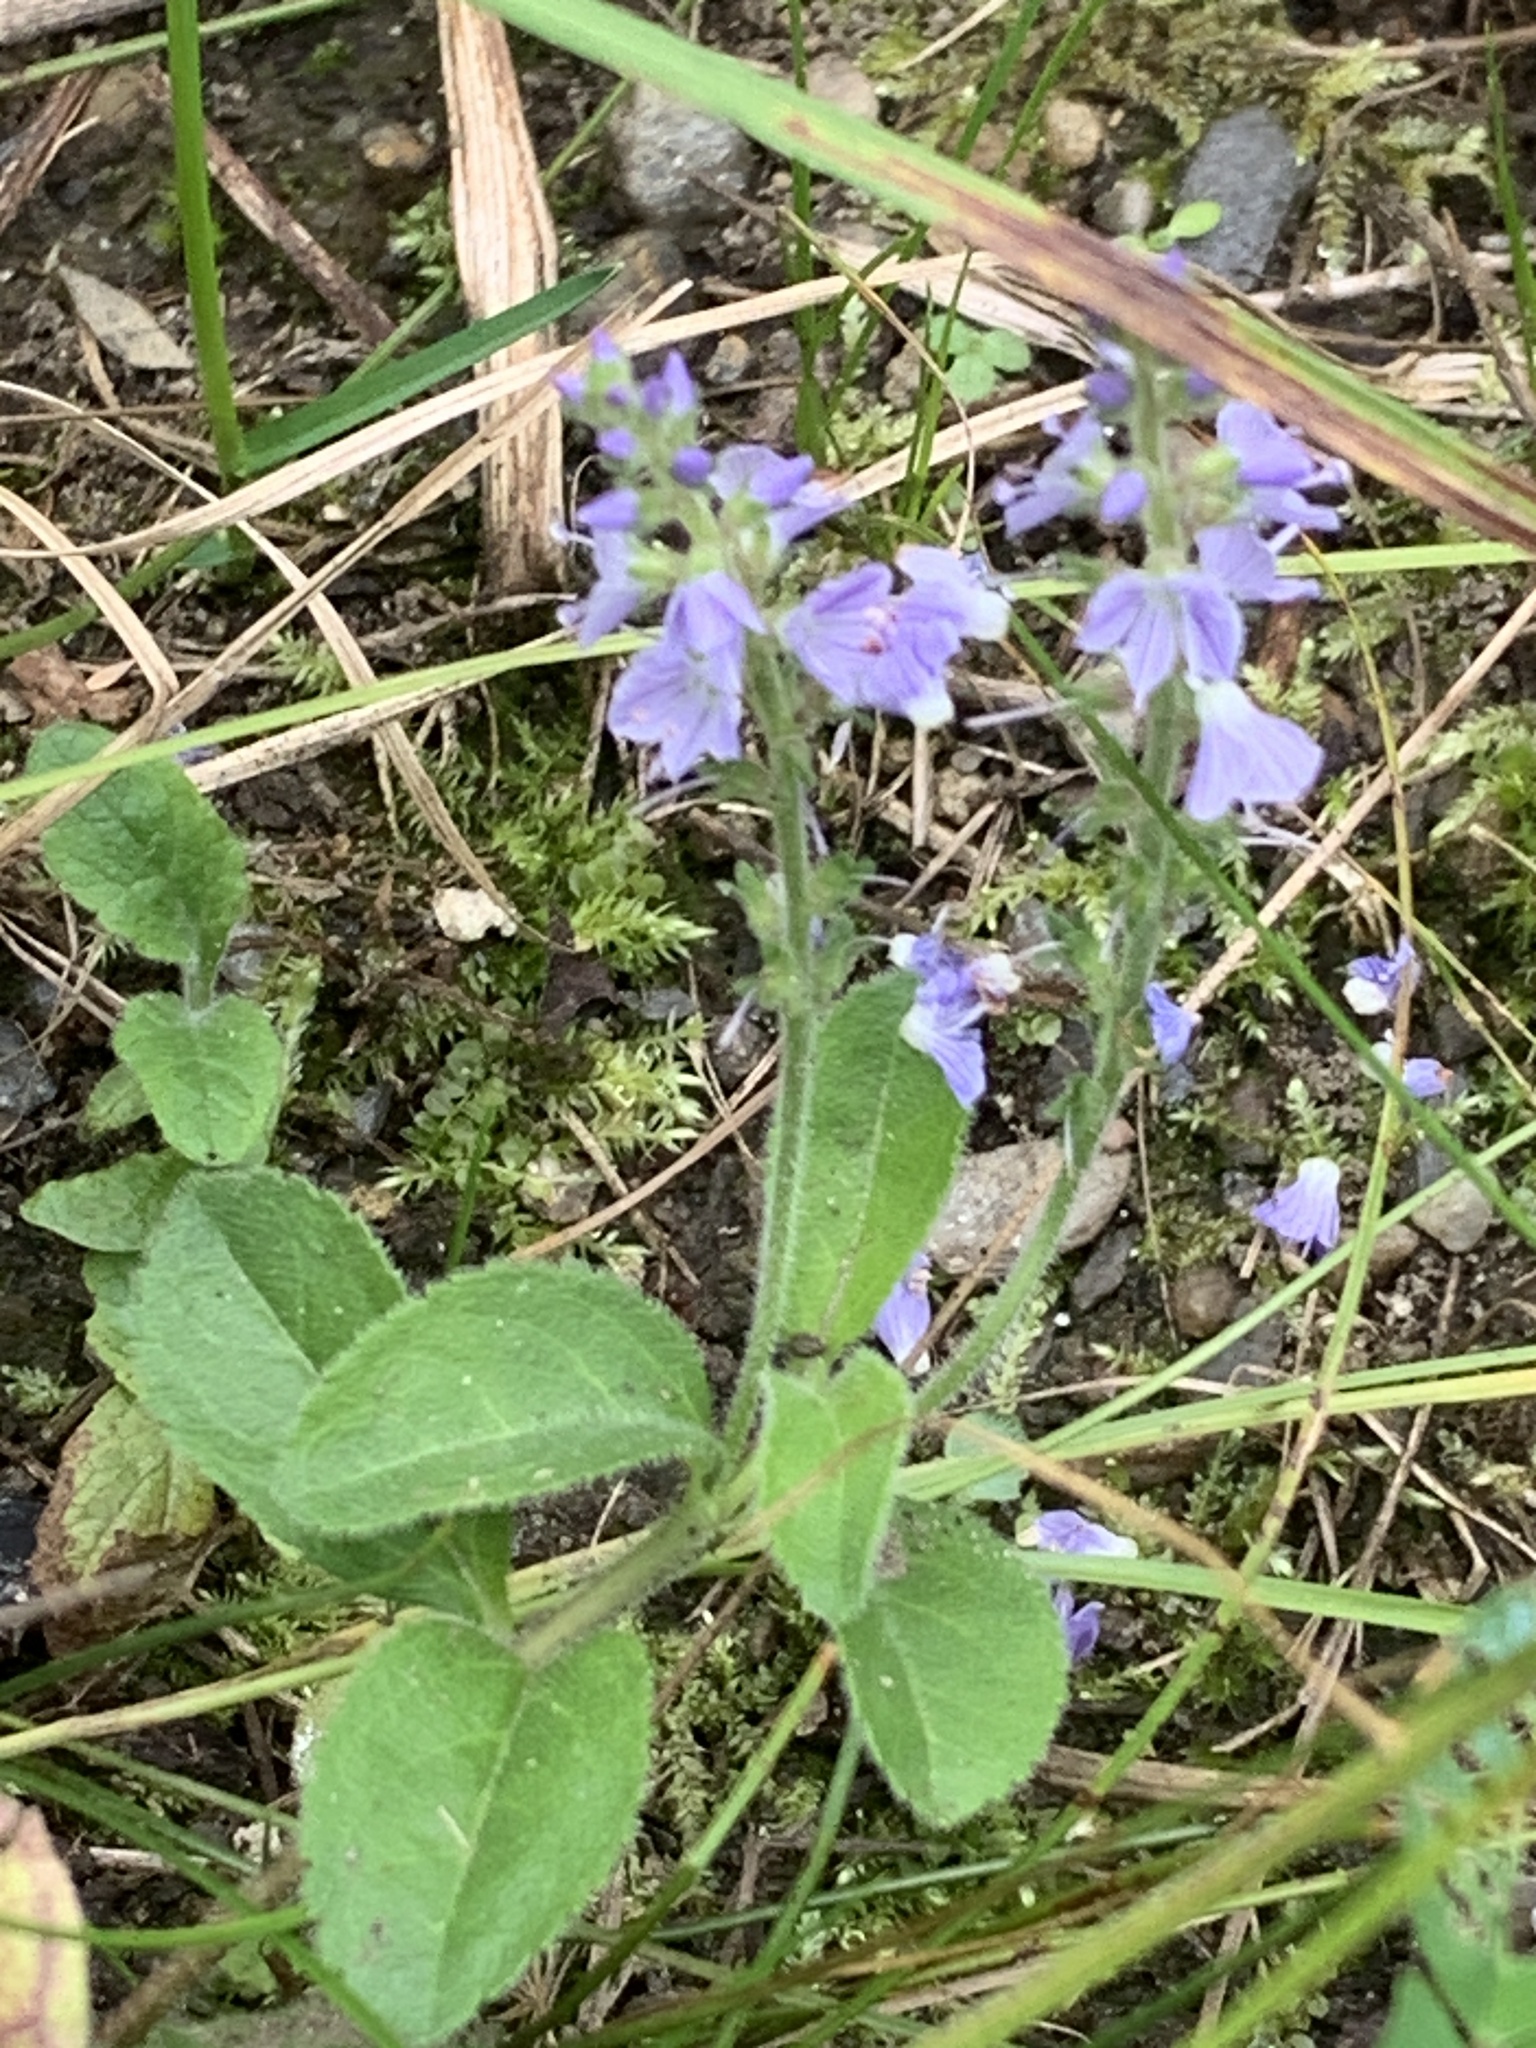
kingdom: Plantae
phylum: Tracheophyta
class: Magnoliopsida
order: Lamiales
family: Plantaginaceae
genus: Veronica
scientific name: Veronica officinalis
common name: Common speedwell
